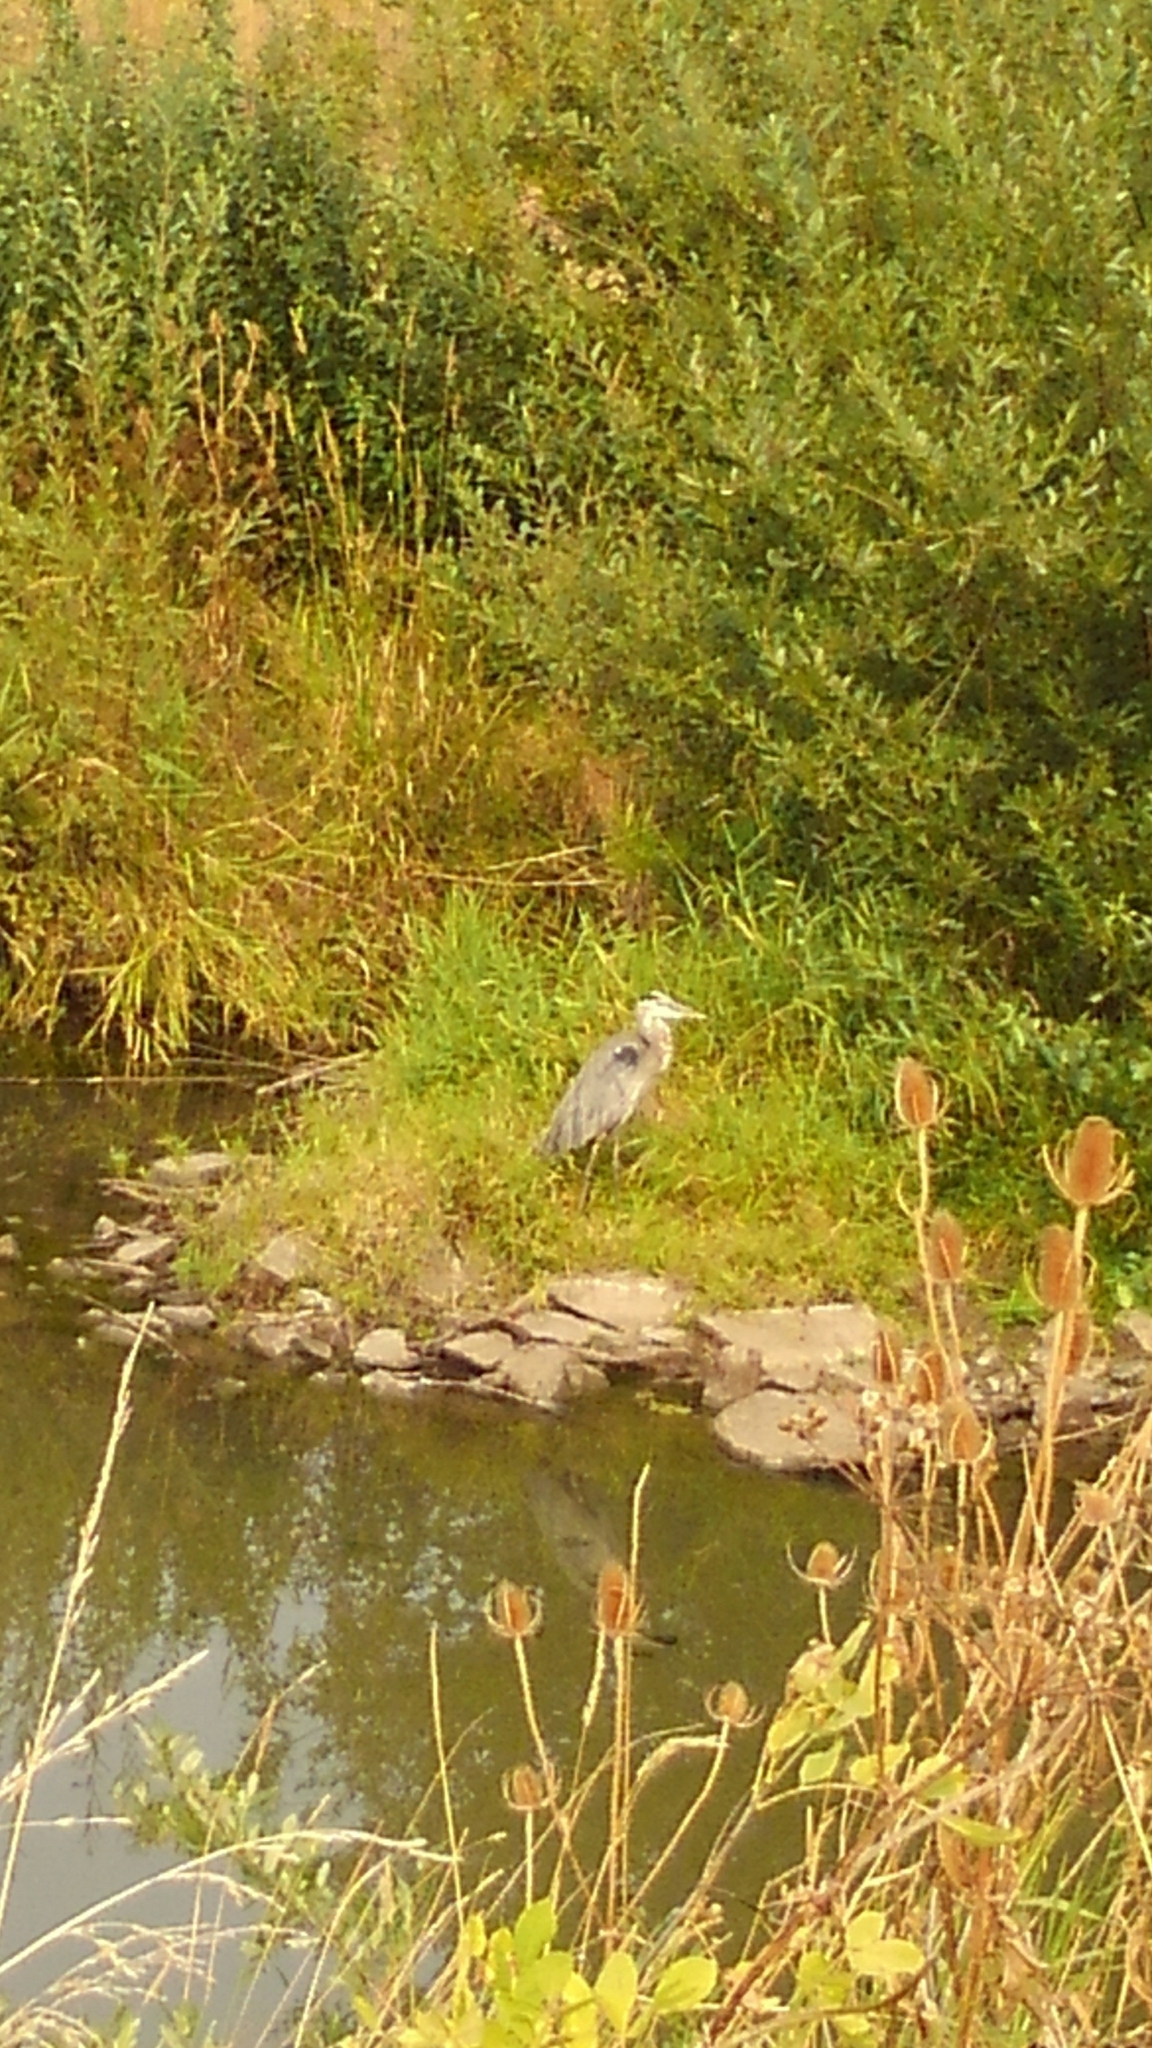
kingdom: Animalia
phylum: Chordata
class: Aves
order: Pelecaniformes
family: Ardeidae
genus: Ardea
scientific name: Ardea herodias
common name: Great blue heron
